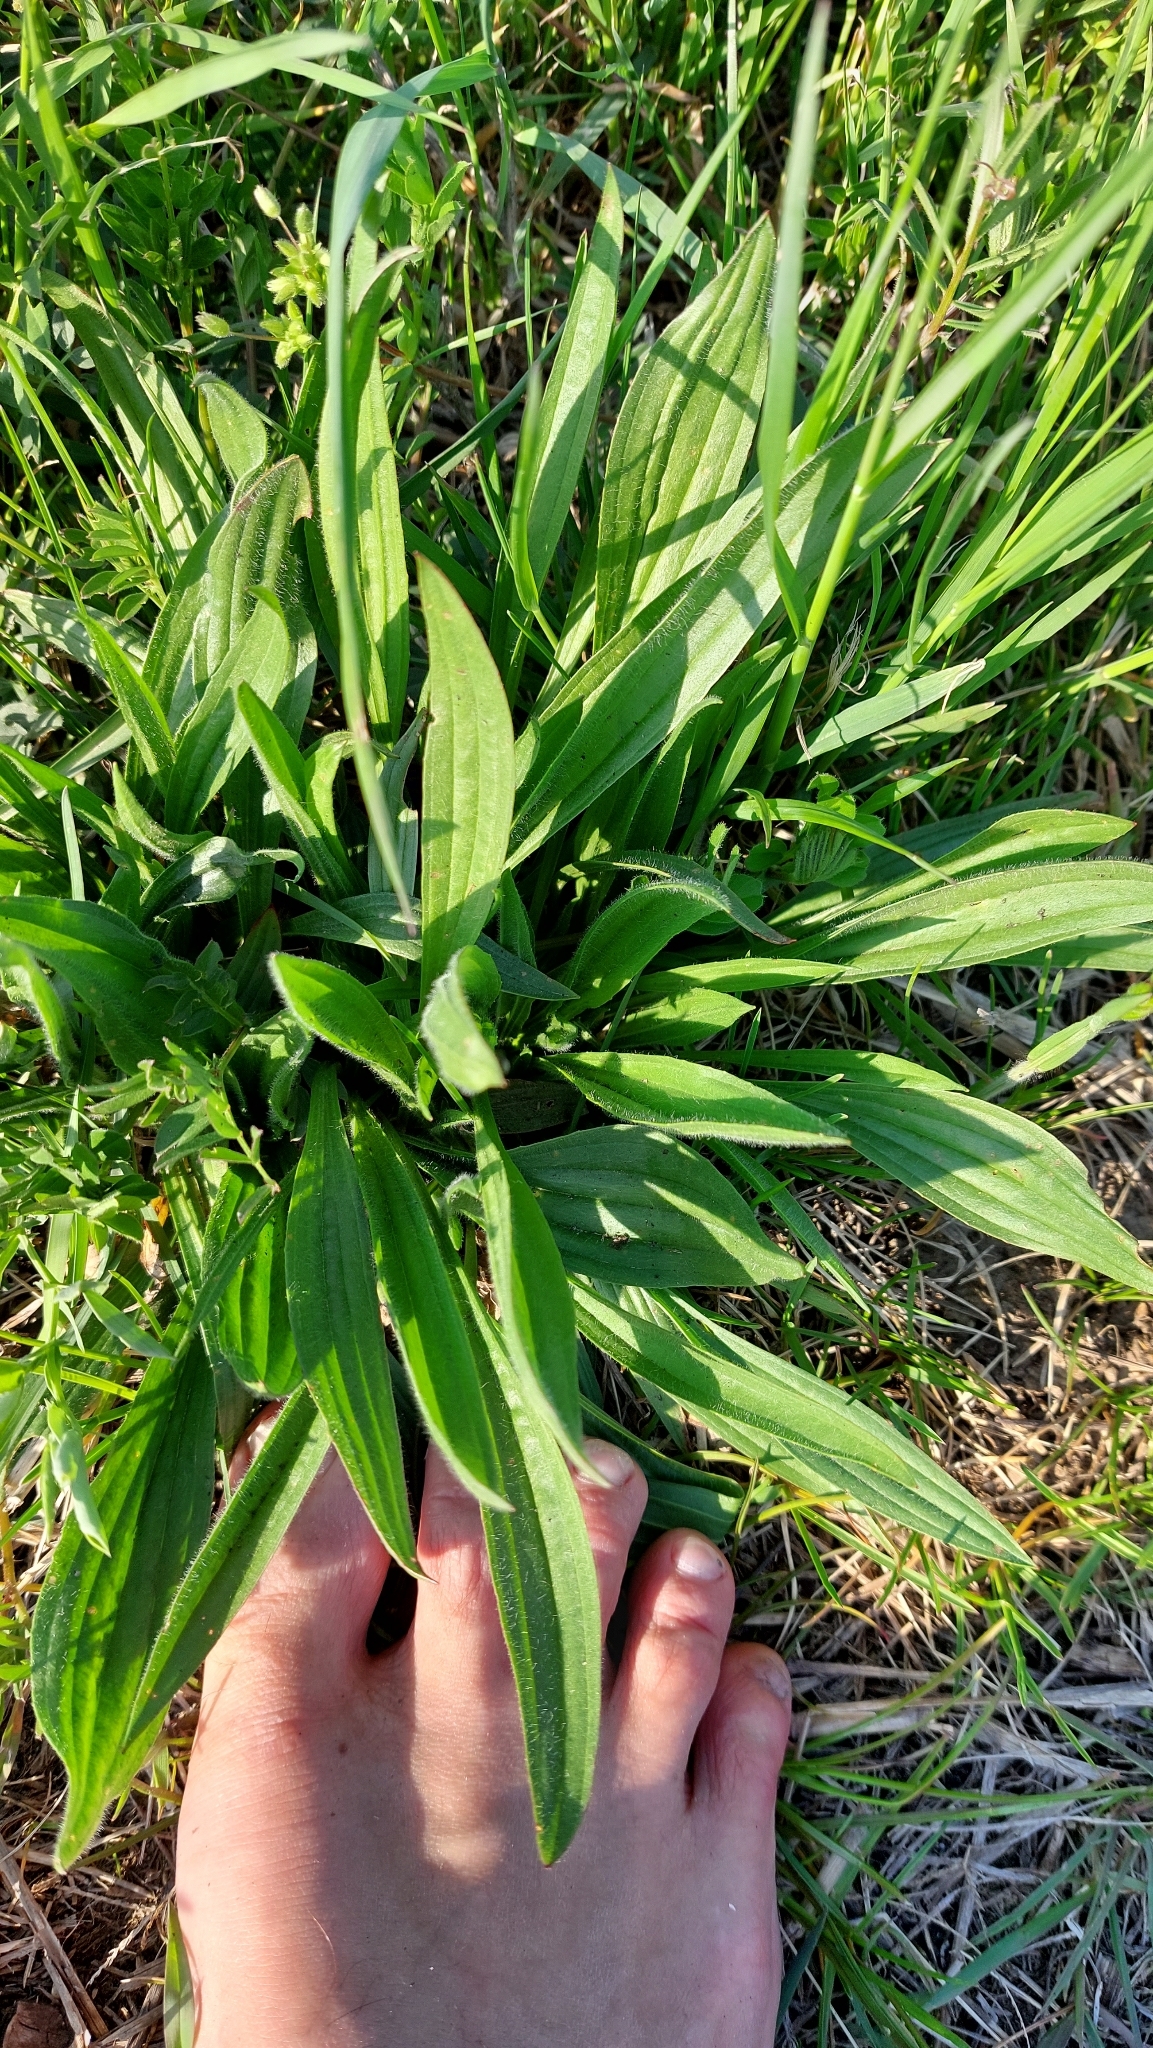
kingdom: Plantae
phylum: Tracheophyta
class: Magnoliopsida
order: Lamiales
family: Plantaginaceae
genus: Plantago
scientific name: Plantago lanceolata
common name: Ribwort plantain
